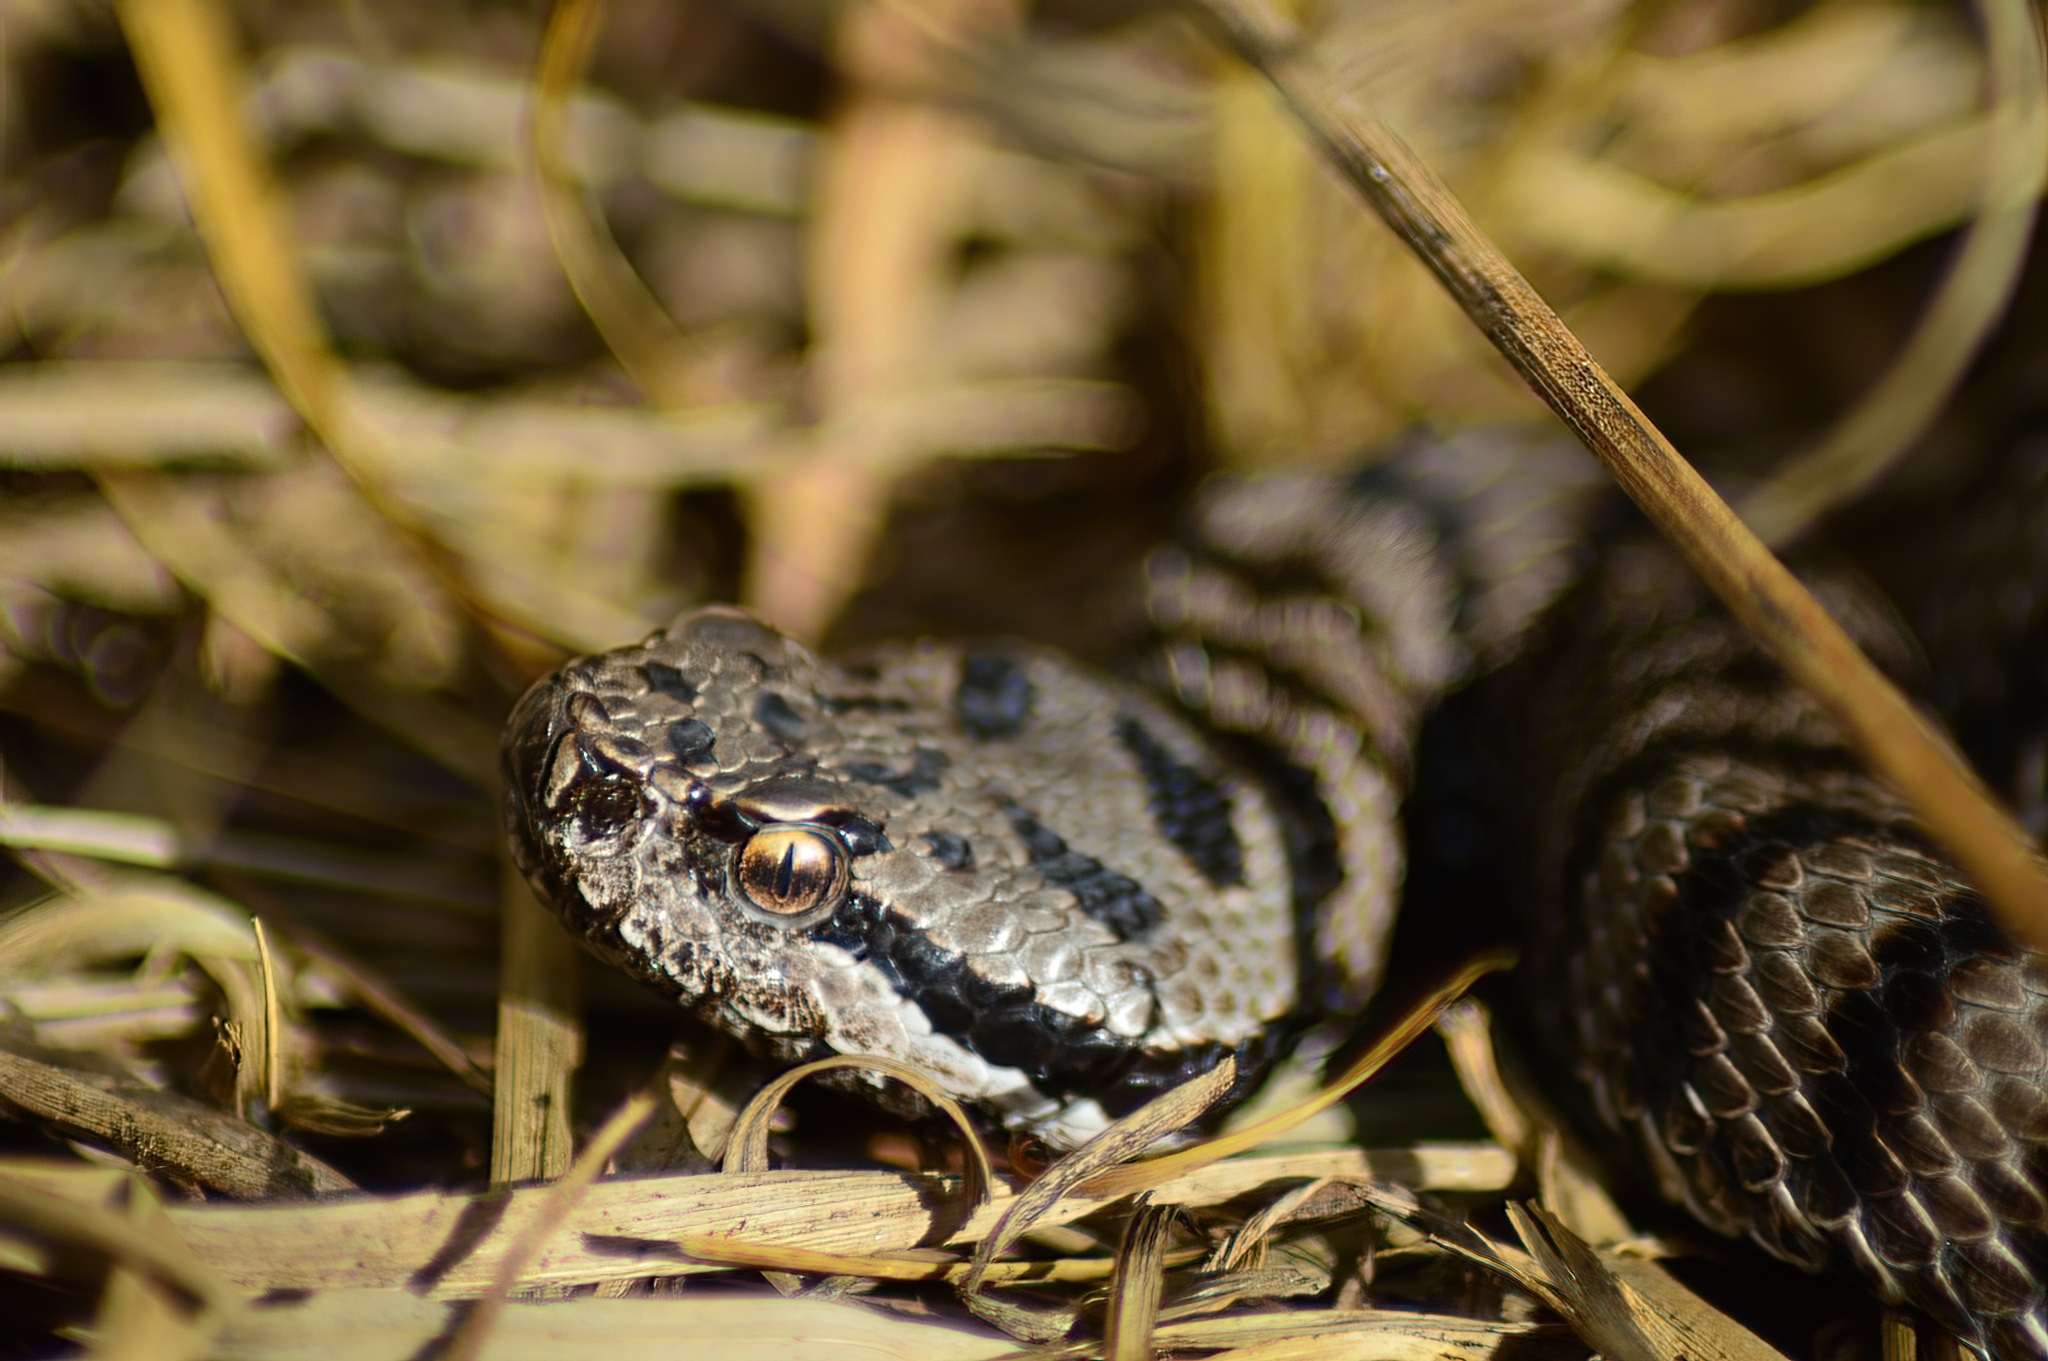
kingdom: Animalia
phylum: Chordata
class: Squamata
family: Viperidae
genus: Vipera
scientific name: Vipera aspis
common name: Asp viper
